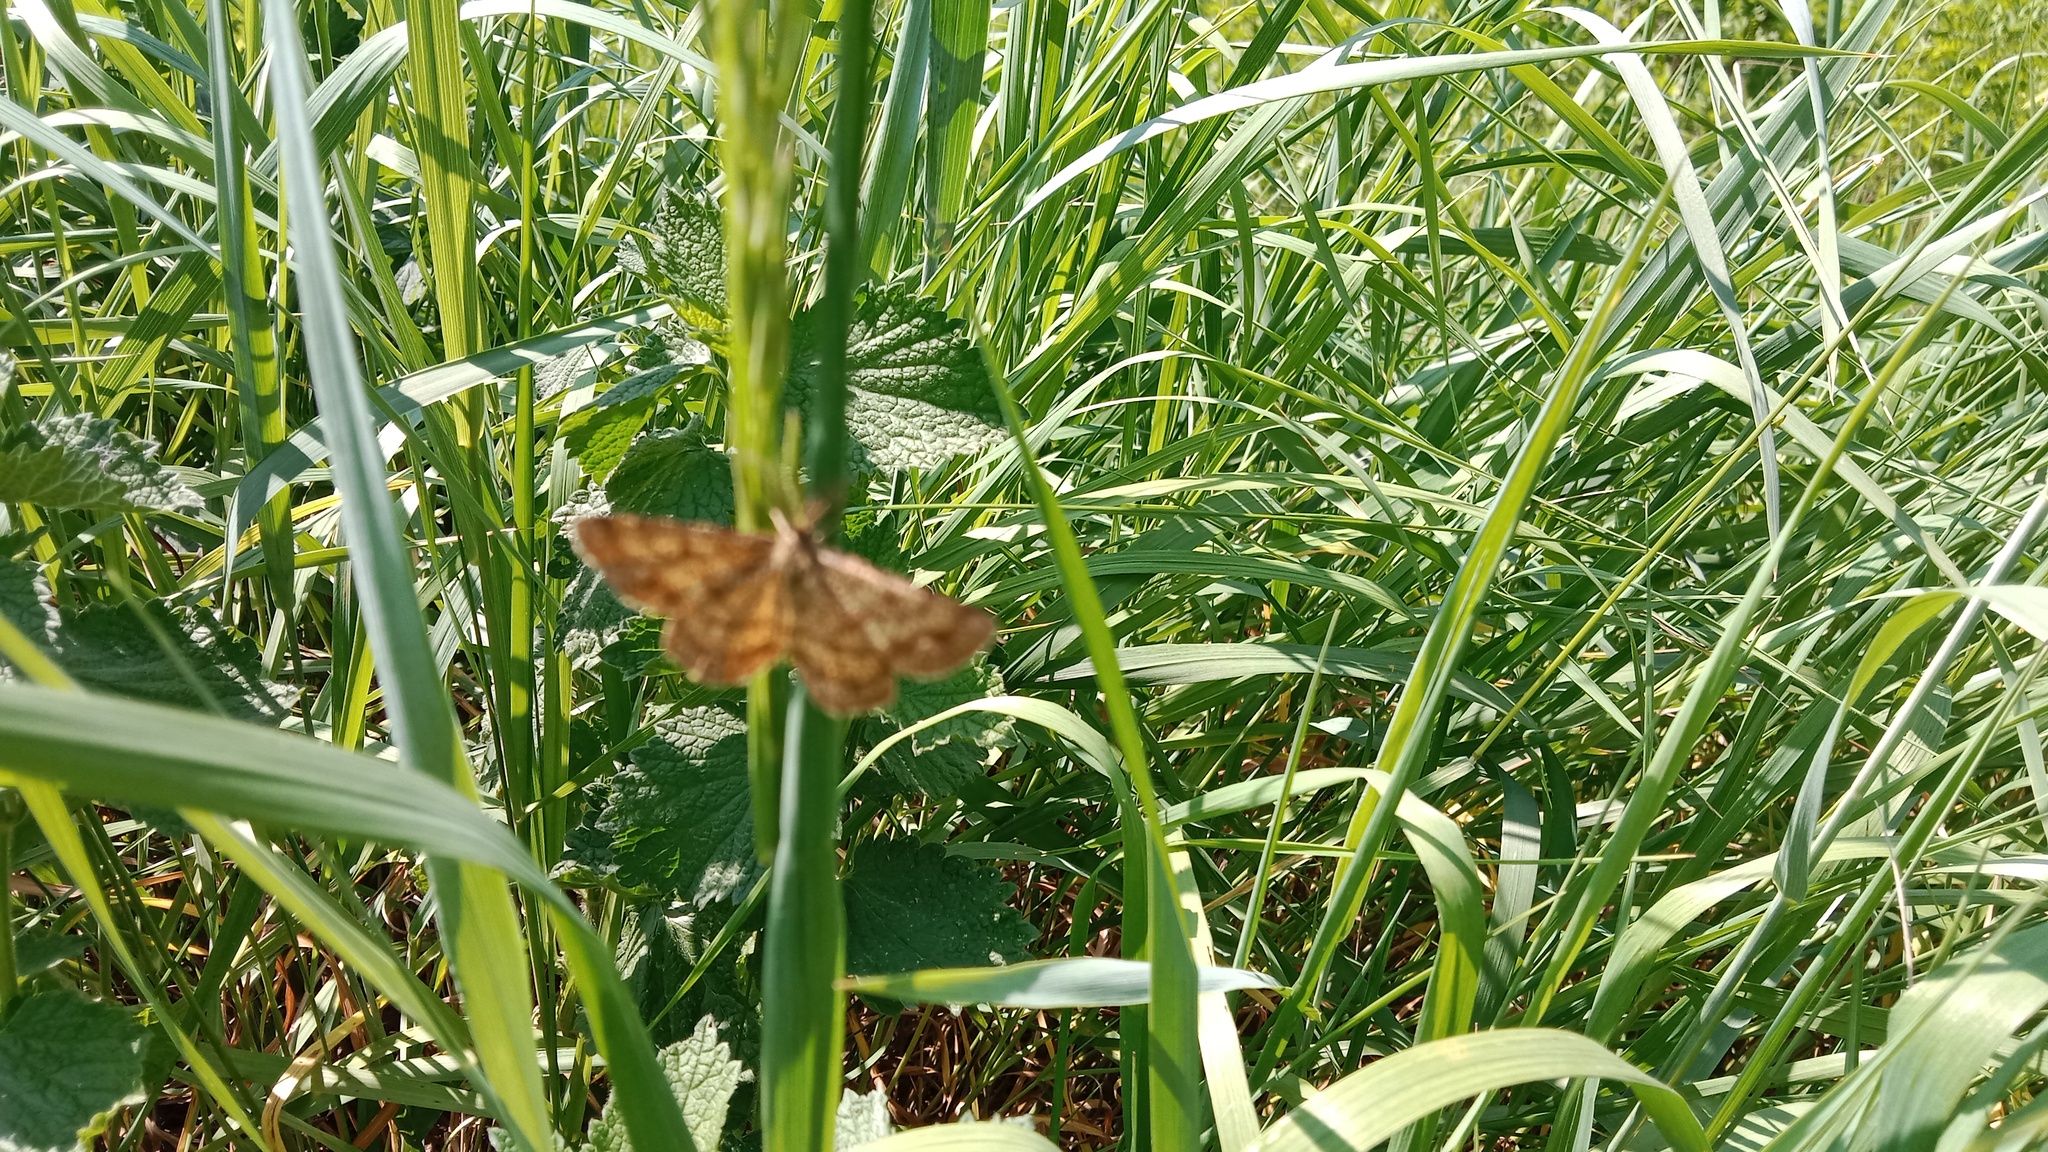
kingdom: Animalia
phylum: Arthropoda
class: Insecta
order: Lepidoptera
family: Geometridae
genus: Ematurga
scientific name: Ematurga atomaria
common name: Common heath
